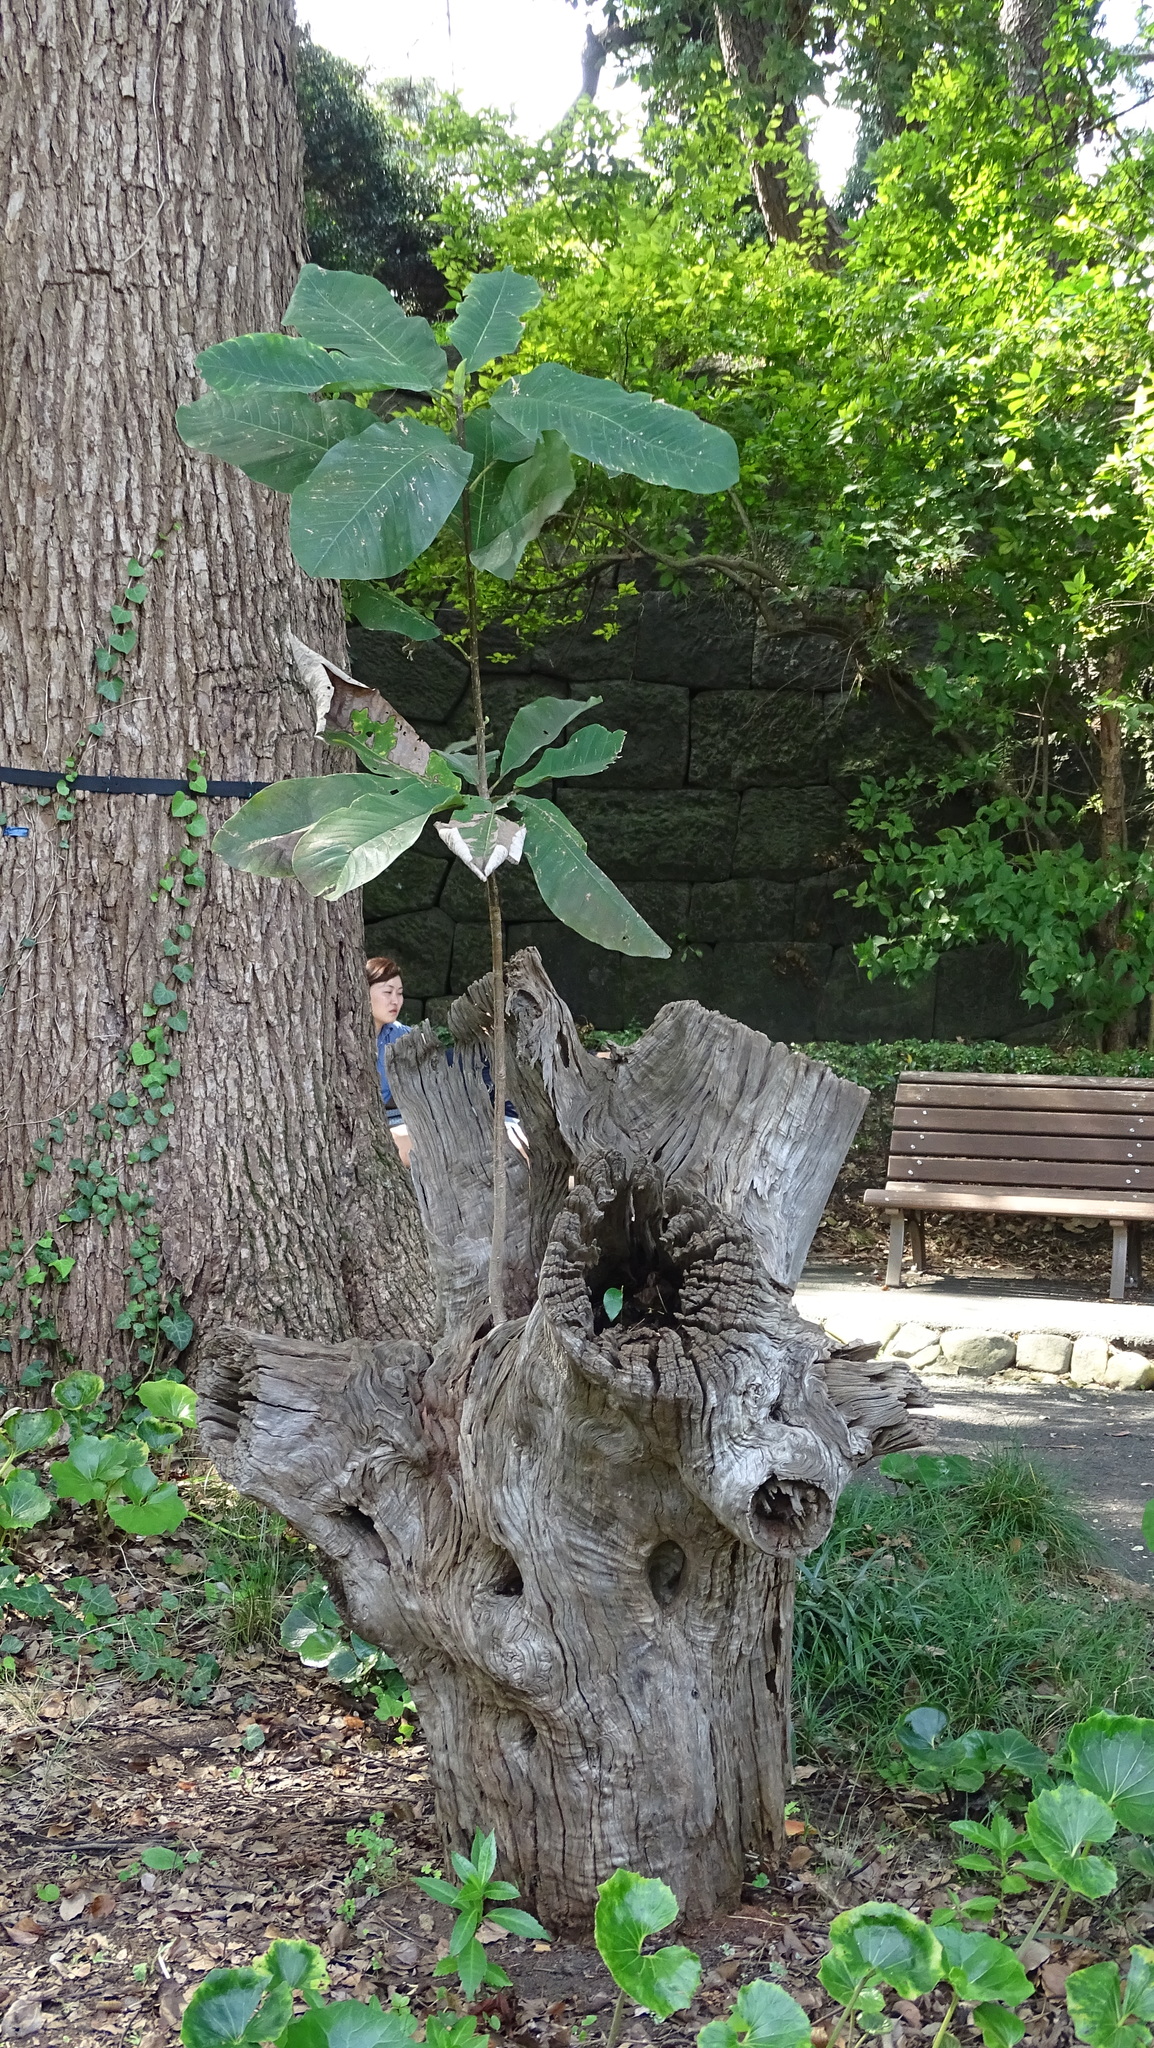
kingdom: Plantae
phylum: Tracheophyta
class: Magnoliopsida
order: Magnoliales
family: Magnoliaceae
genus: Magnolia
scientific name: Magnolia obovata
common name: Japanese whitebark magnolia
